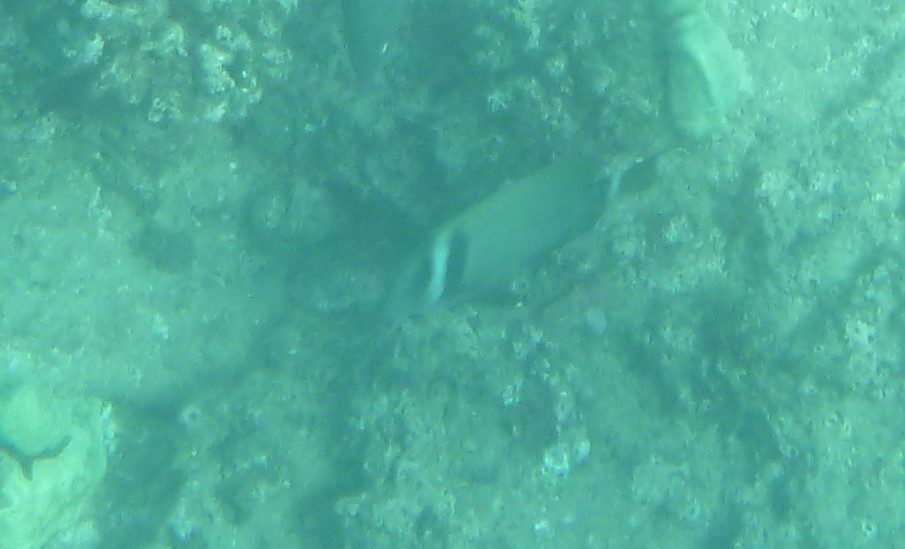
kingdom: Animalia
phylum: Chordata
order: Perciformes
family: Acanthuridae
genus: Acanthurus
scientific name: Acanthurus leucopareius
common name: Head-band surgeonfish
